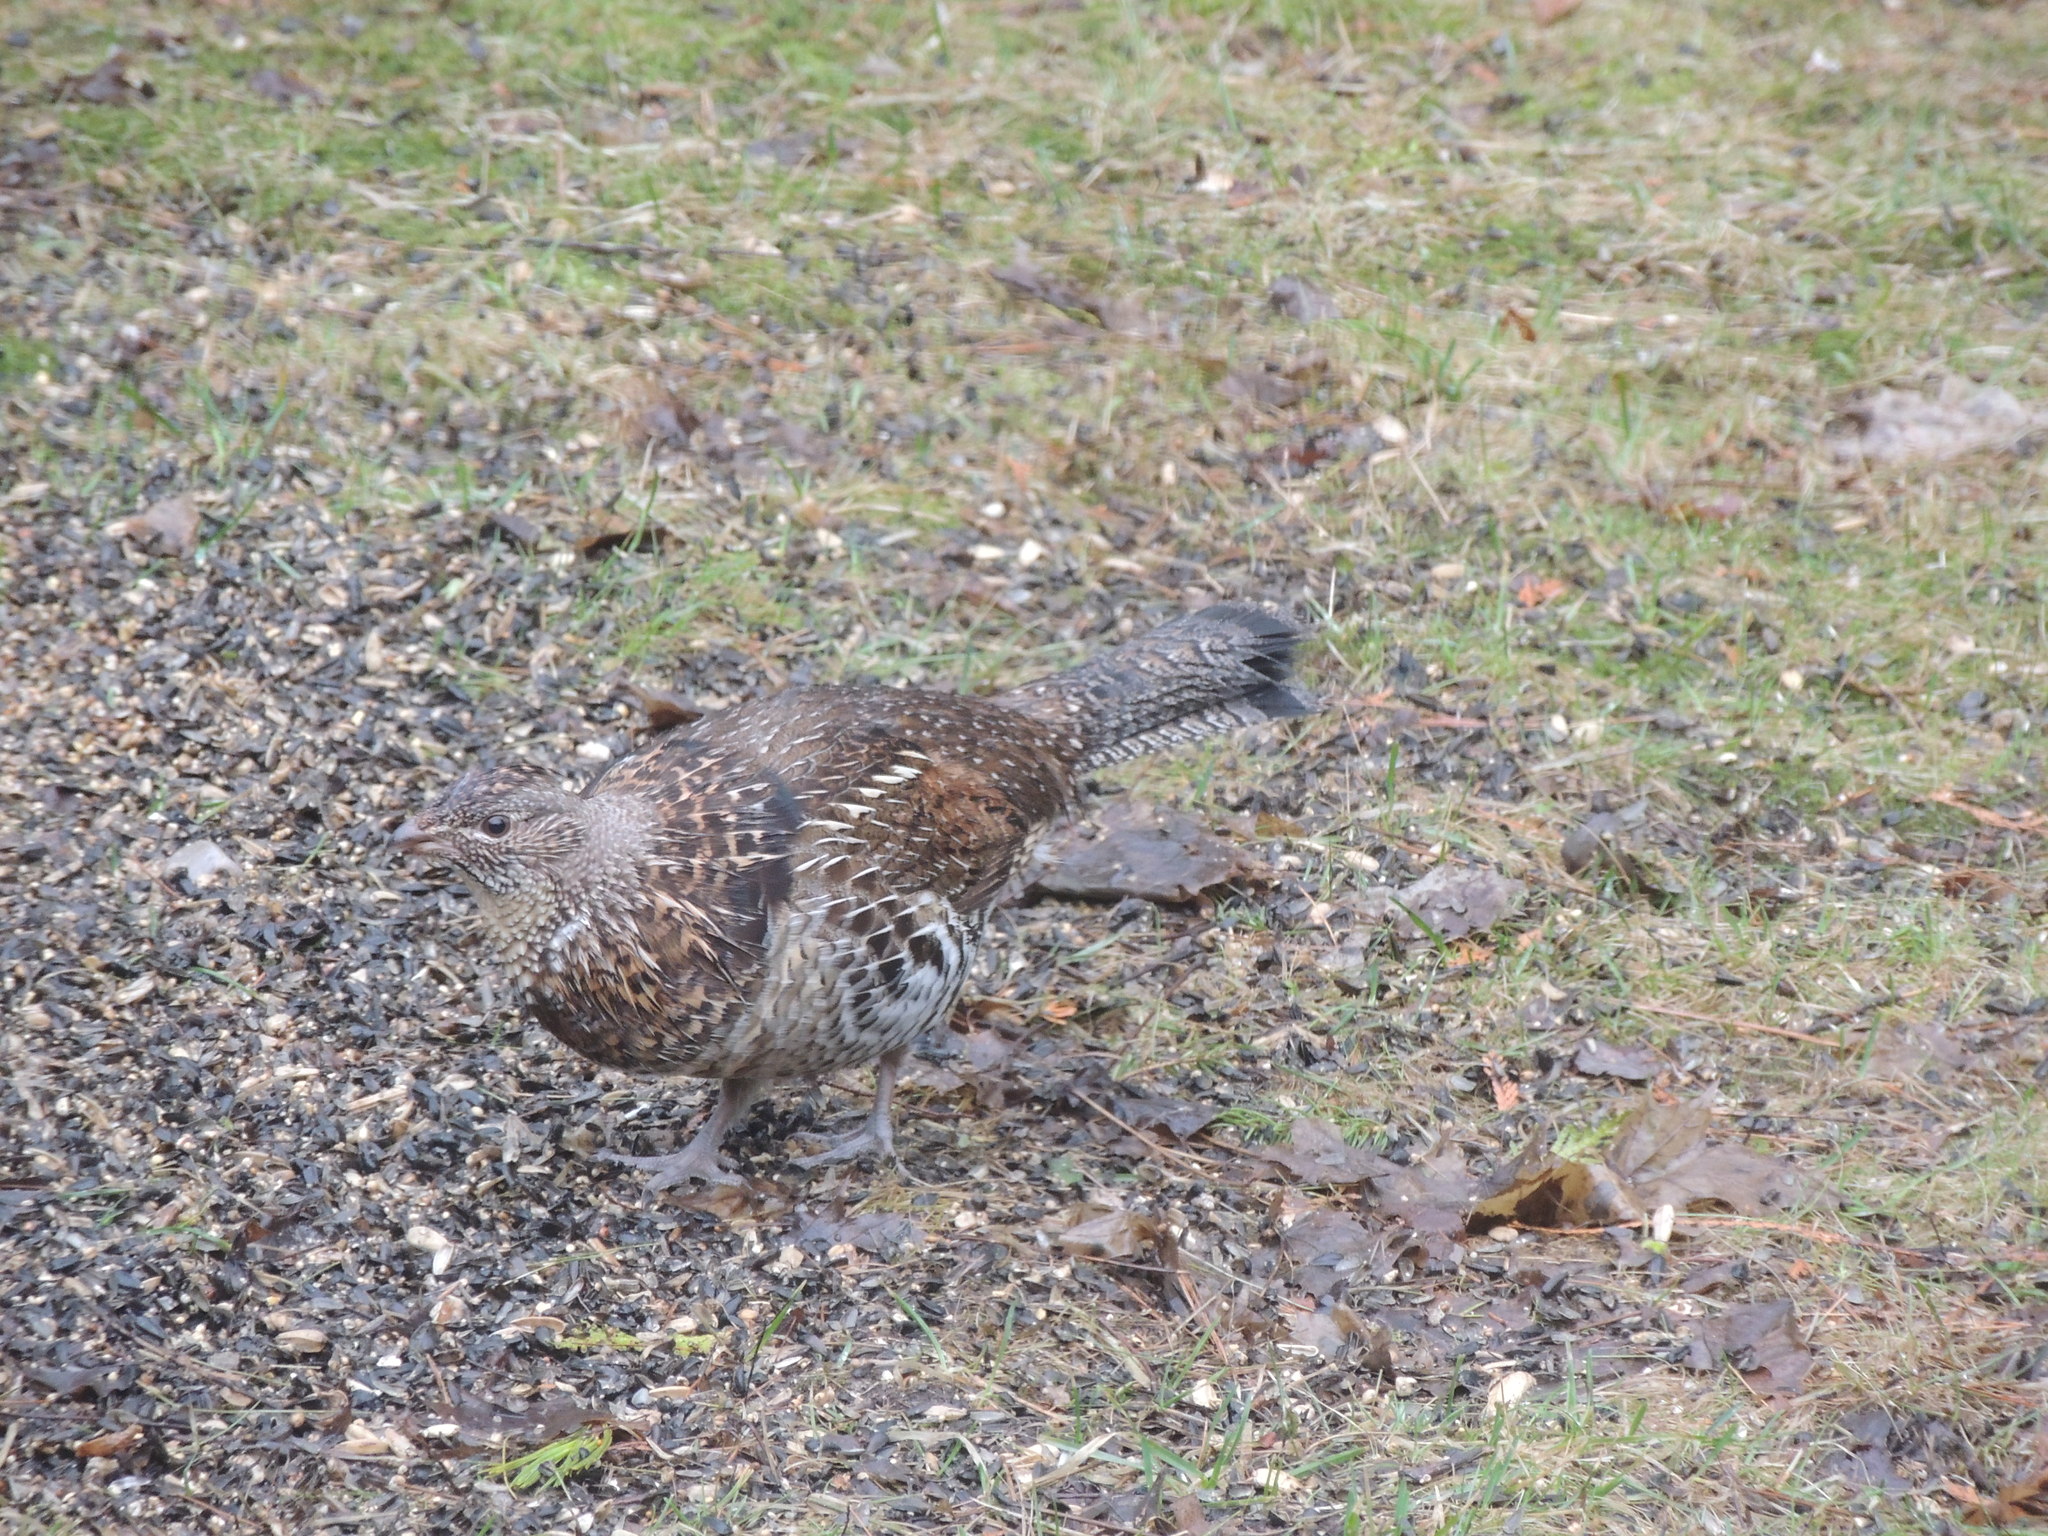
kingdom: Animalia
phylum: Chordata
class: Aves
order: Galliformes
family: Phasianidae
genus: Bonasa
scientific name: Bonasa umbellus
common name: Ruffed grouse
